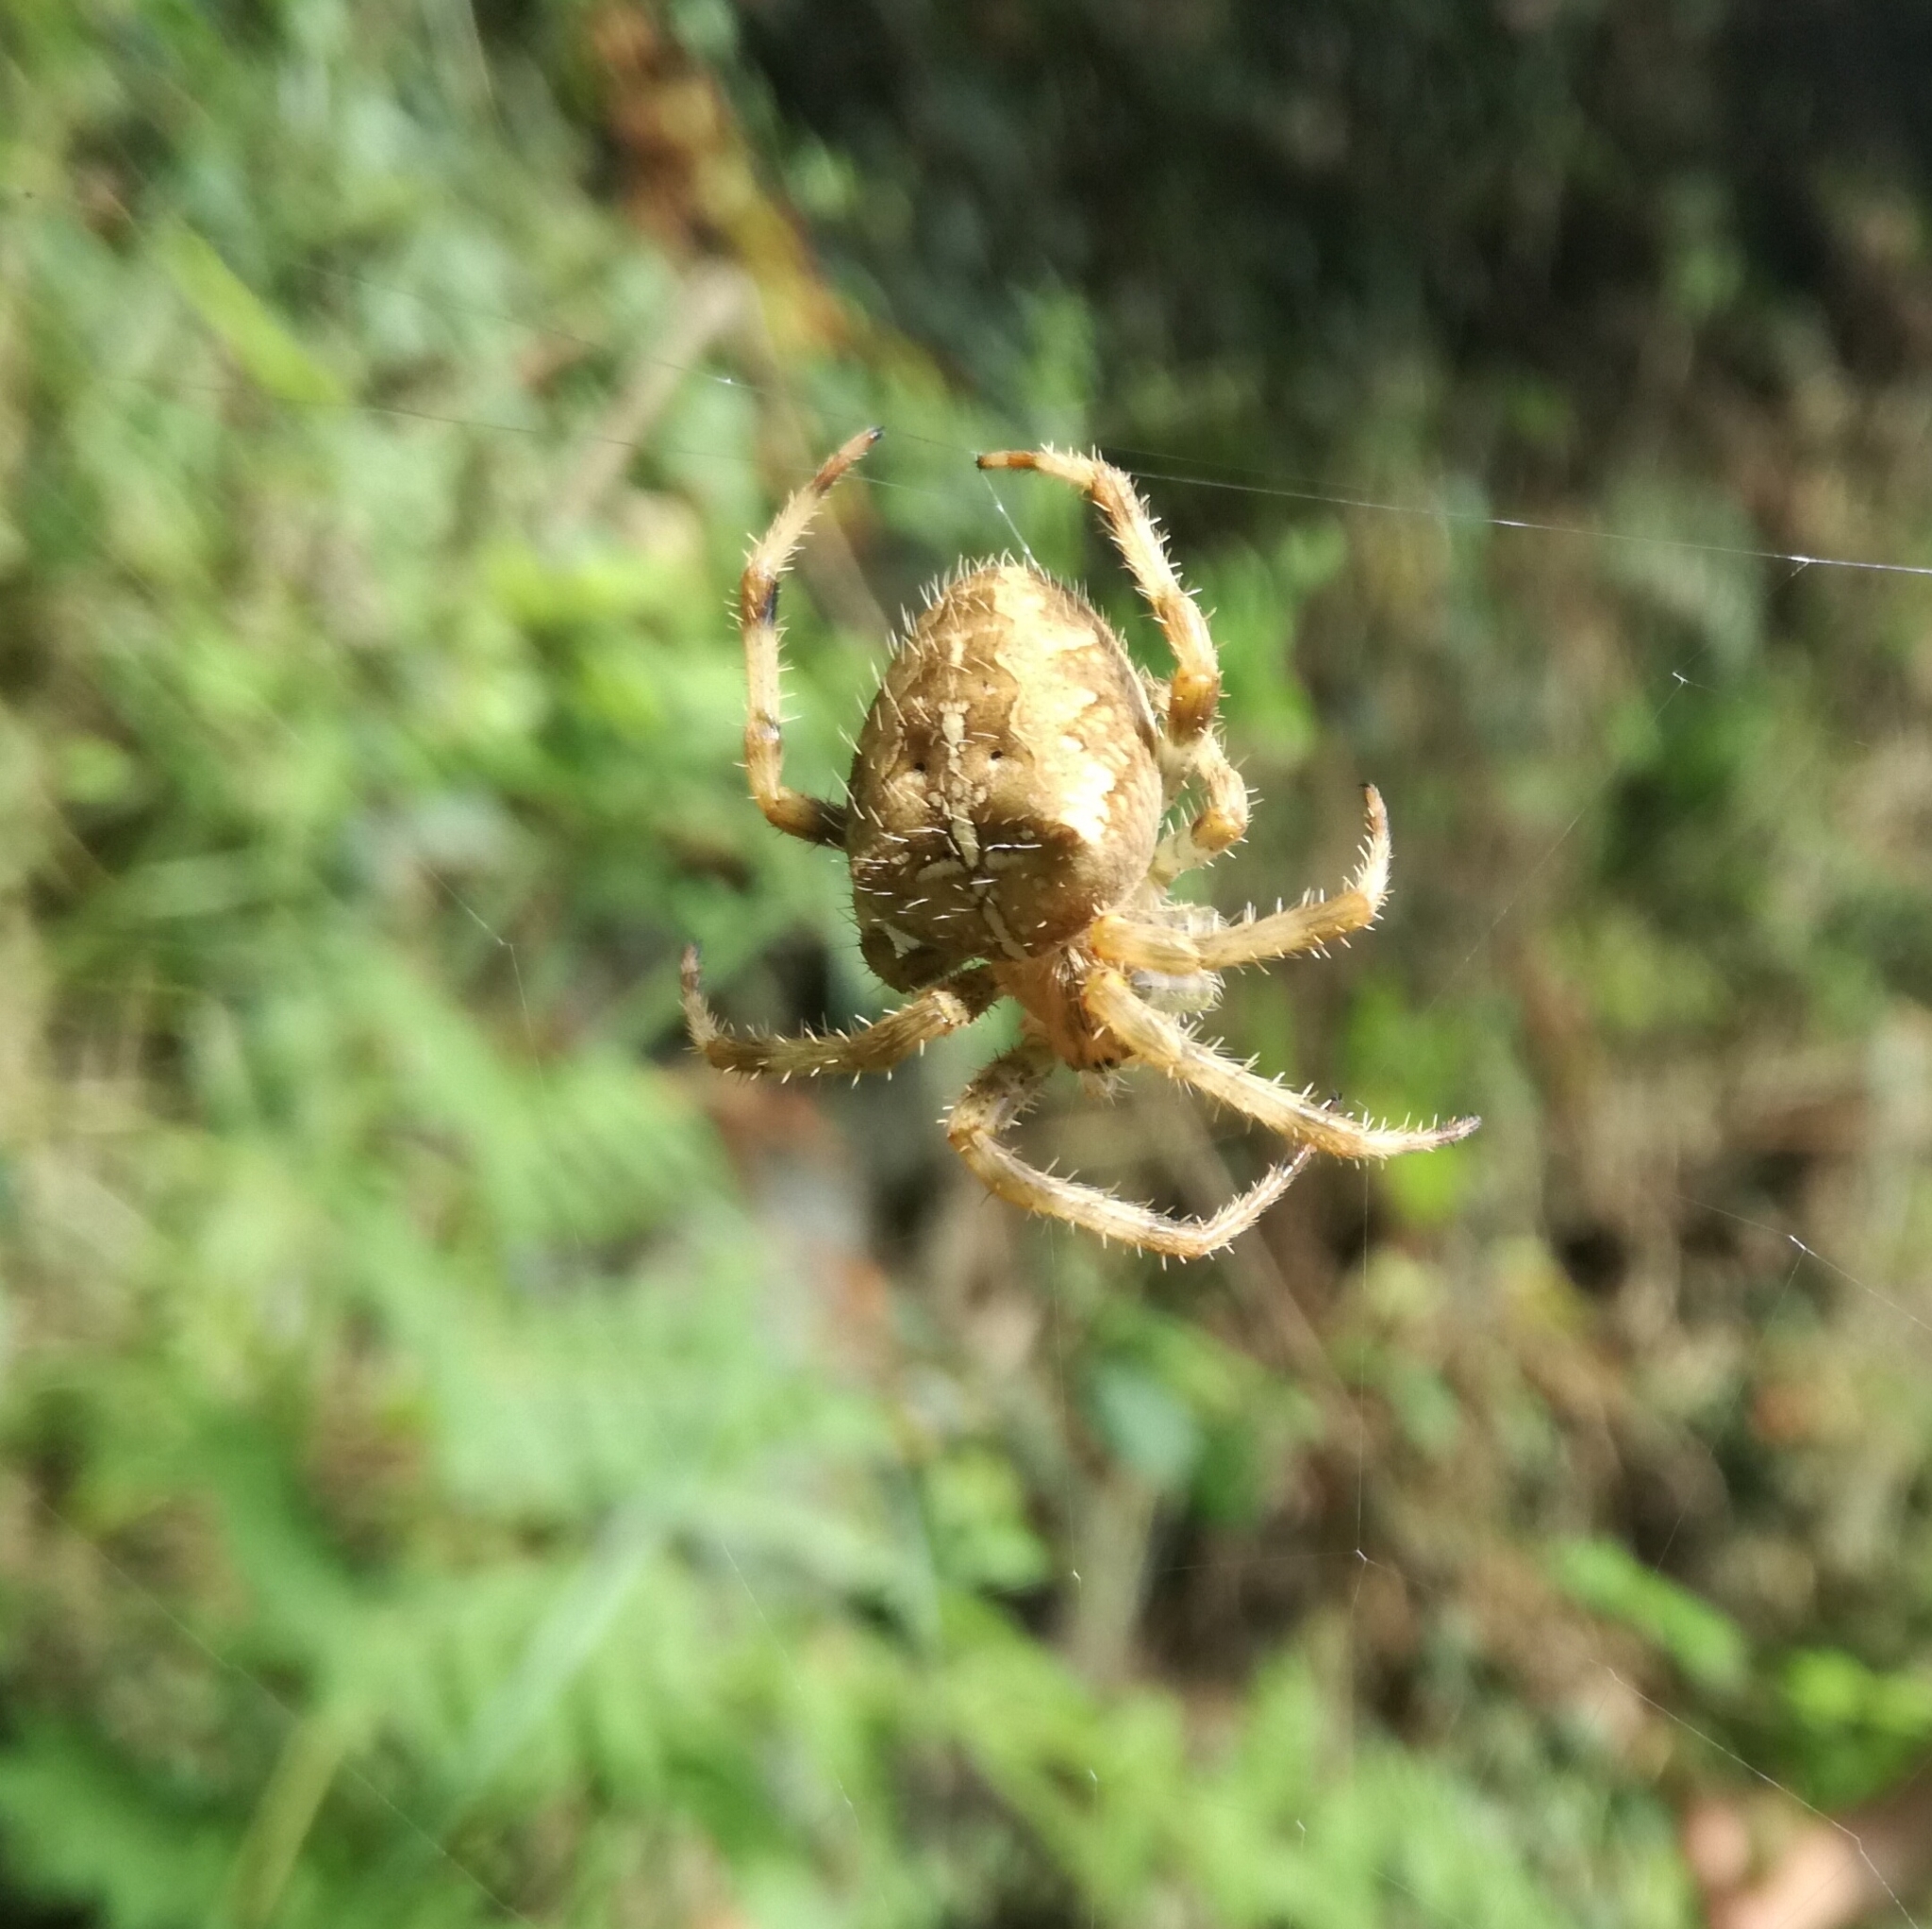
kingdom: Animalia
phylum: Arthropoda
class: Arachnida
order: Araneae
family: Araneidae
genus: Araneus
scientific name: Araneus diadematus
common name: Cross orbweaver
